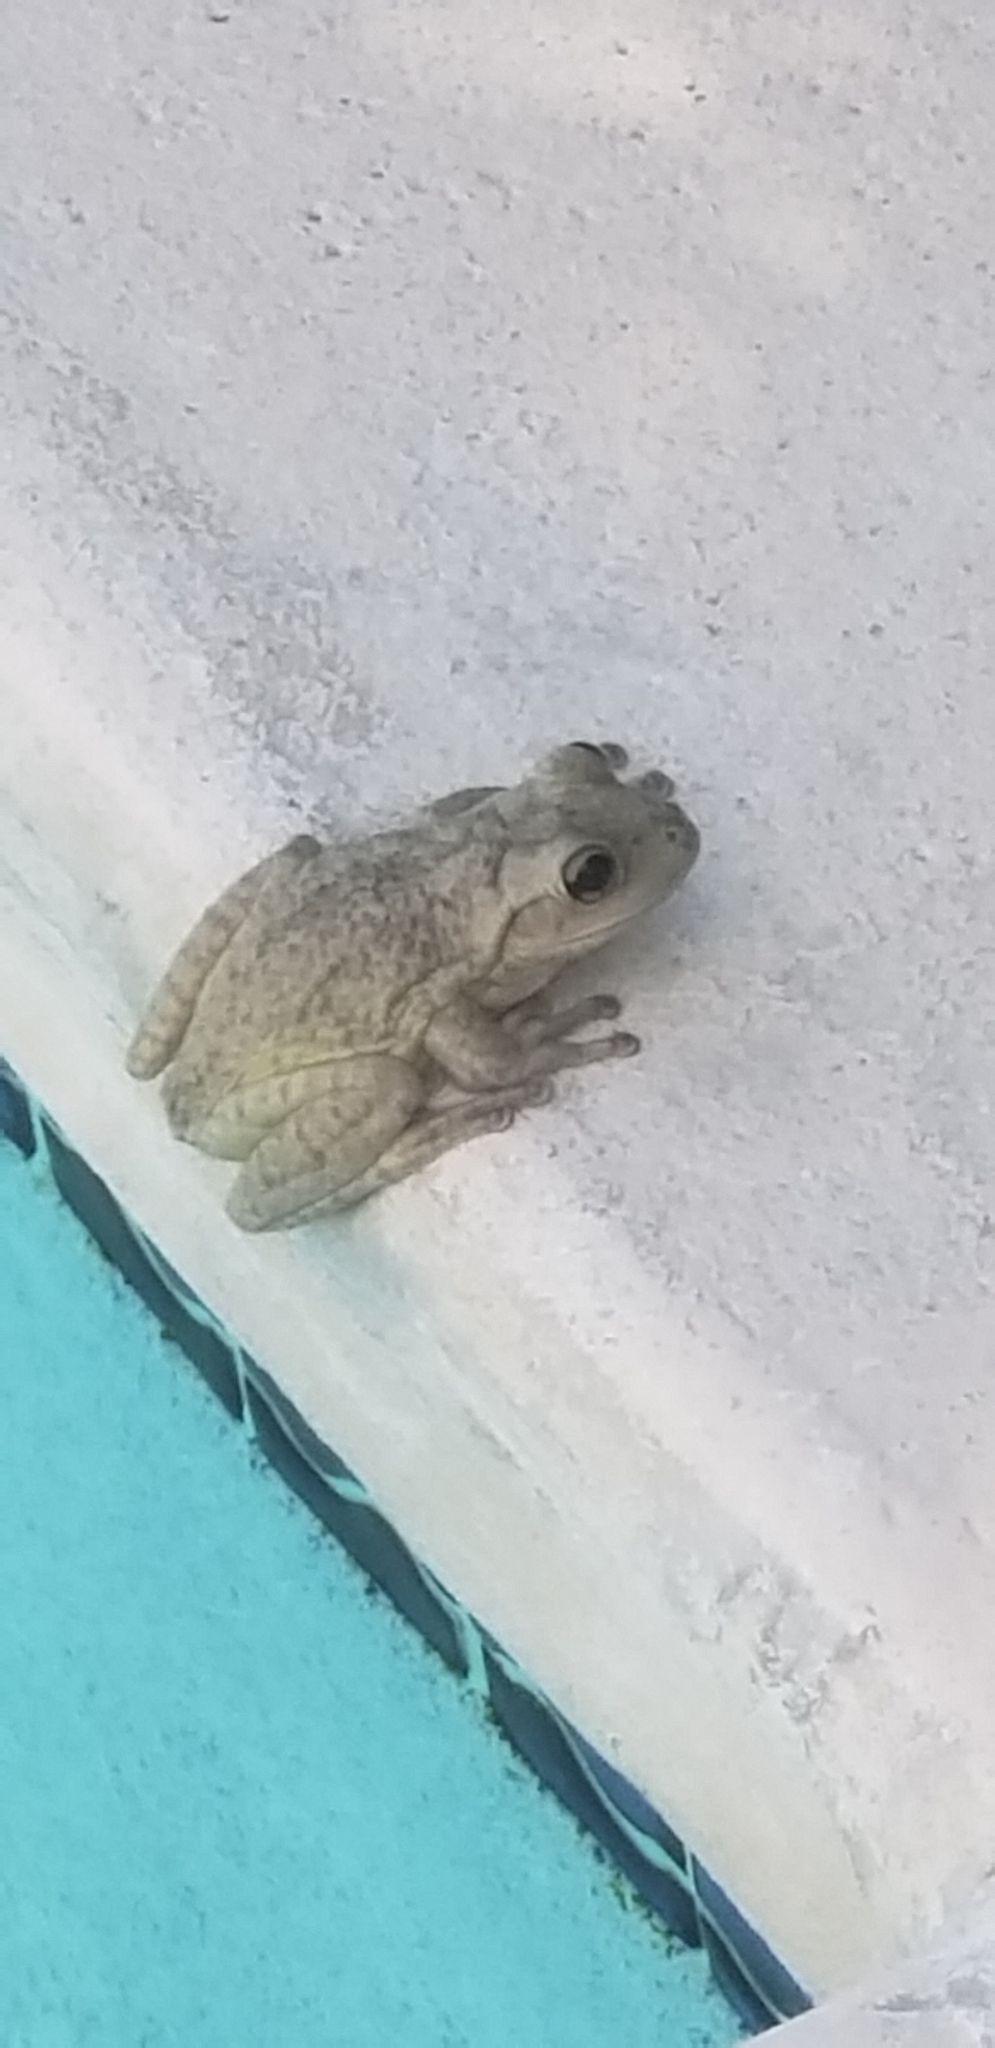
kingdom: Animalia
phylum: Chordata
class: Amphibia
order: Anura
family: Hylidae
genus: Osteopilus
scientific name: Osteopilus septentrionalis
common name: Cuban treefrog
